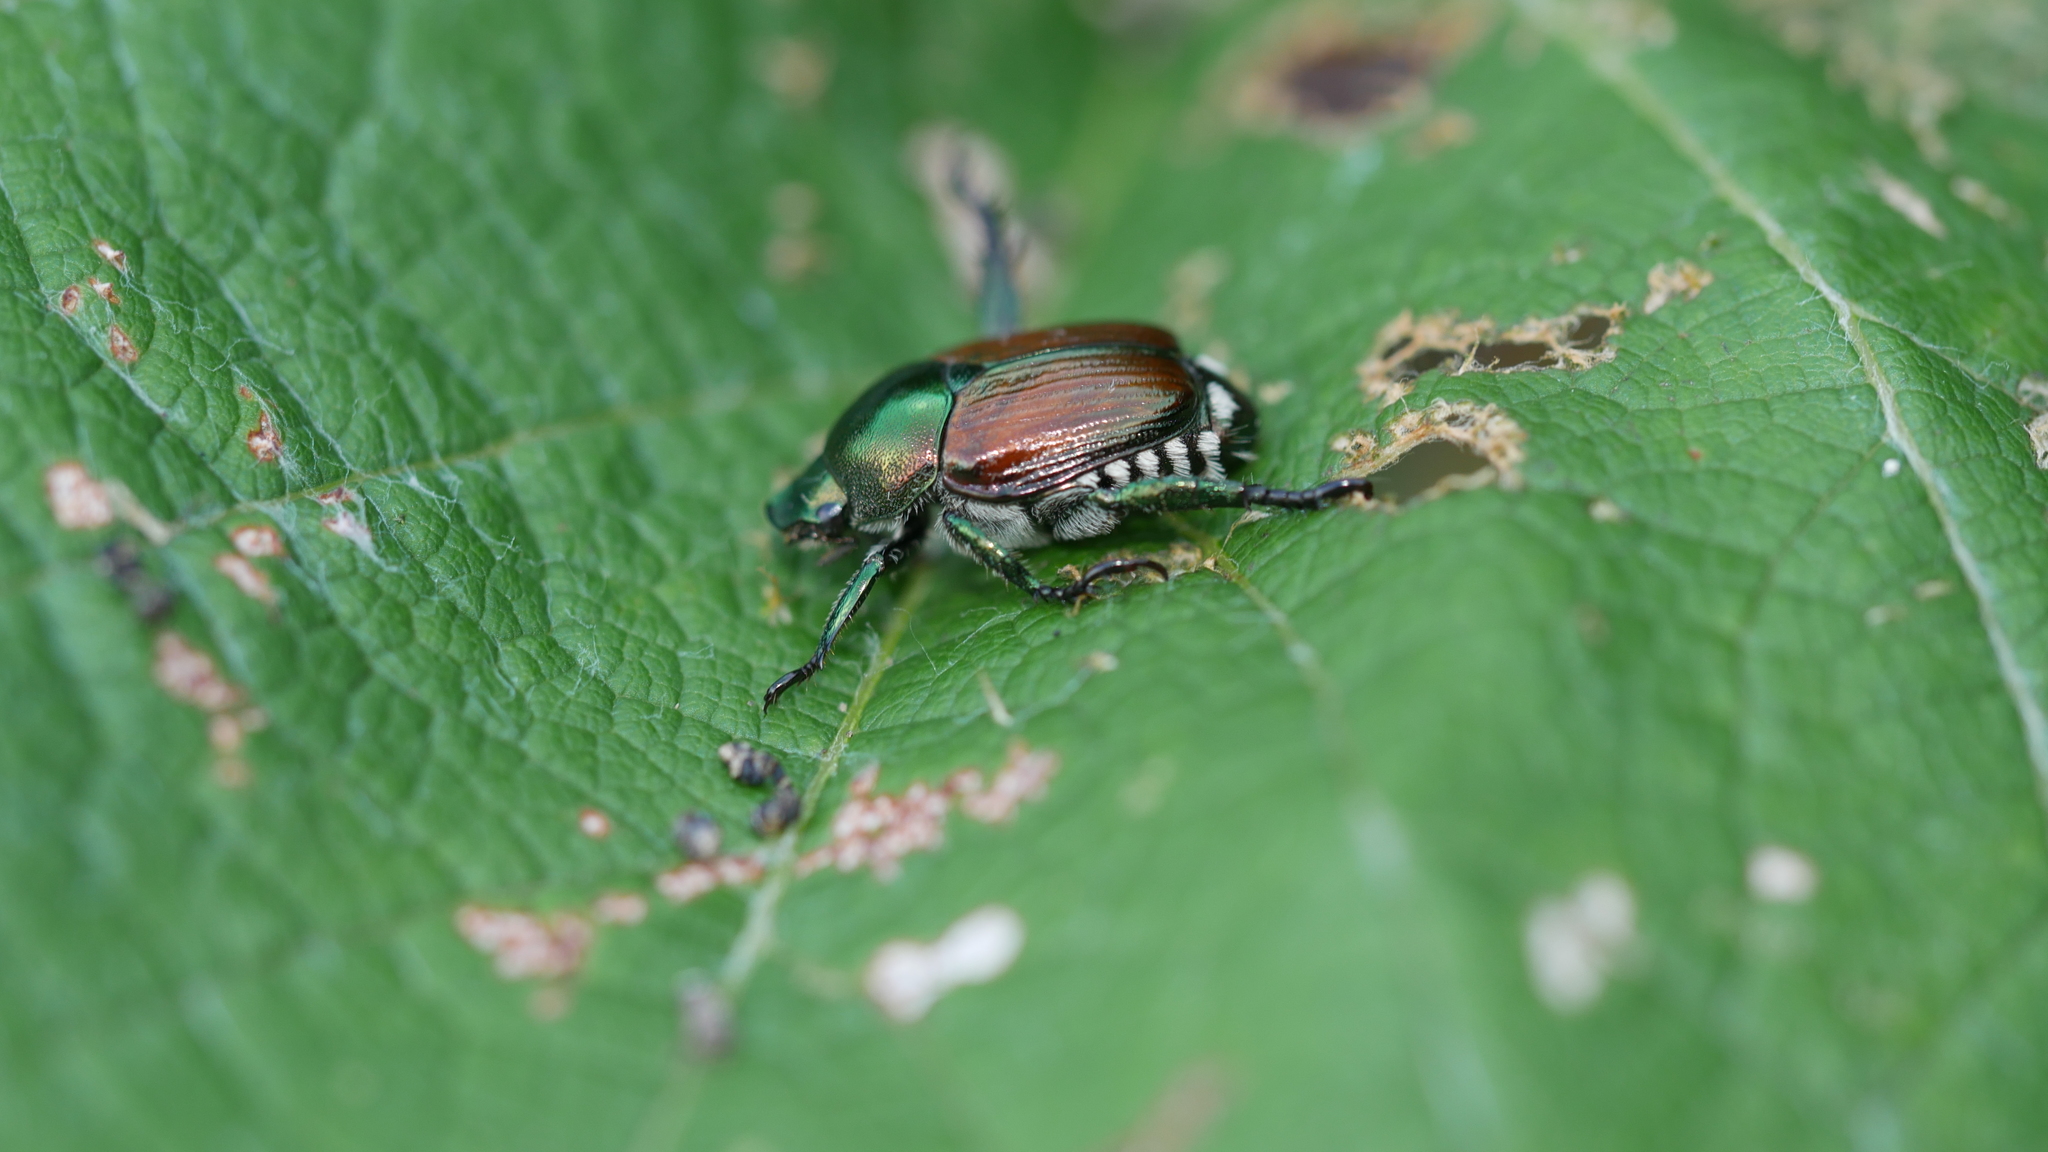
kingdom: Animalia
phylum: Arthropoda
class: Insecta
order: Coleoptera
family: Scarabaeidae
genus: Popillia
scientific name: Popillia japonica
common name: Japanese beetle
